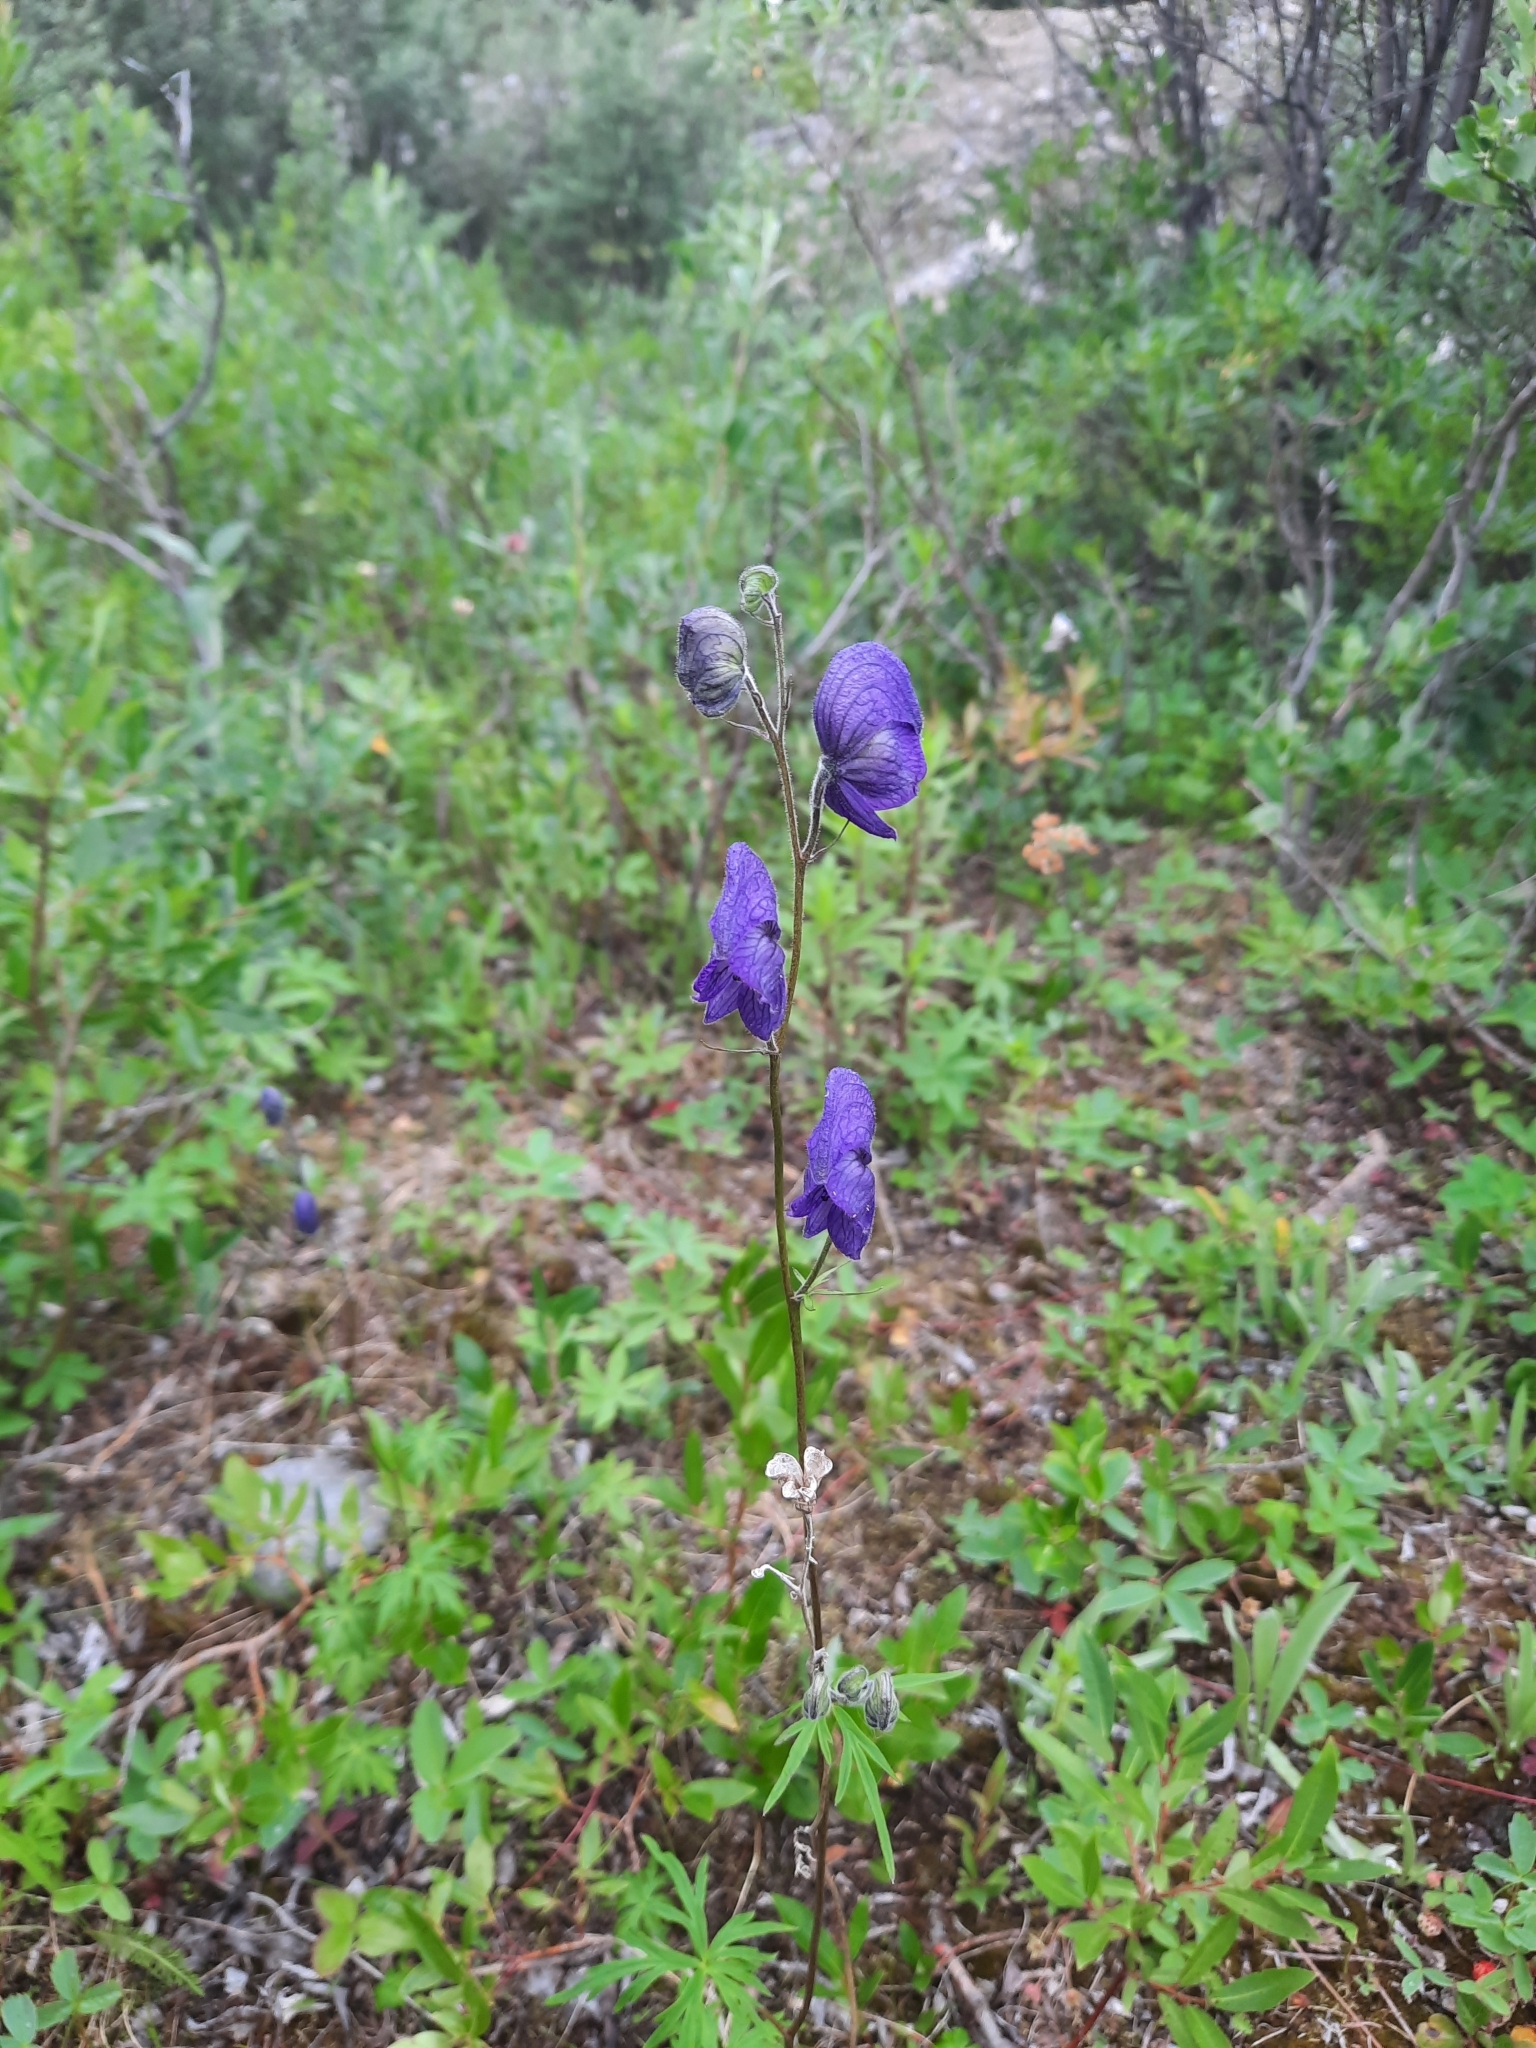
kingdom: Plantae
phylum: Tracheophyta
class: Magnoliopsida
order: Ranunculales
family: Ranunculaceae
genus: Aconitum
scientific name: Aconitum delphiniifolium
